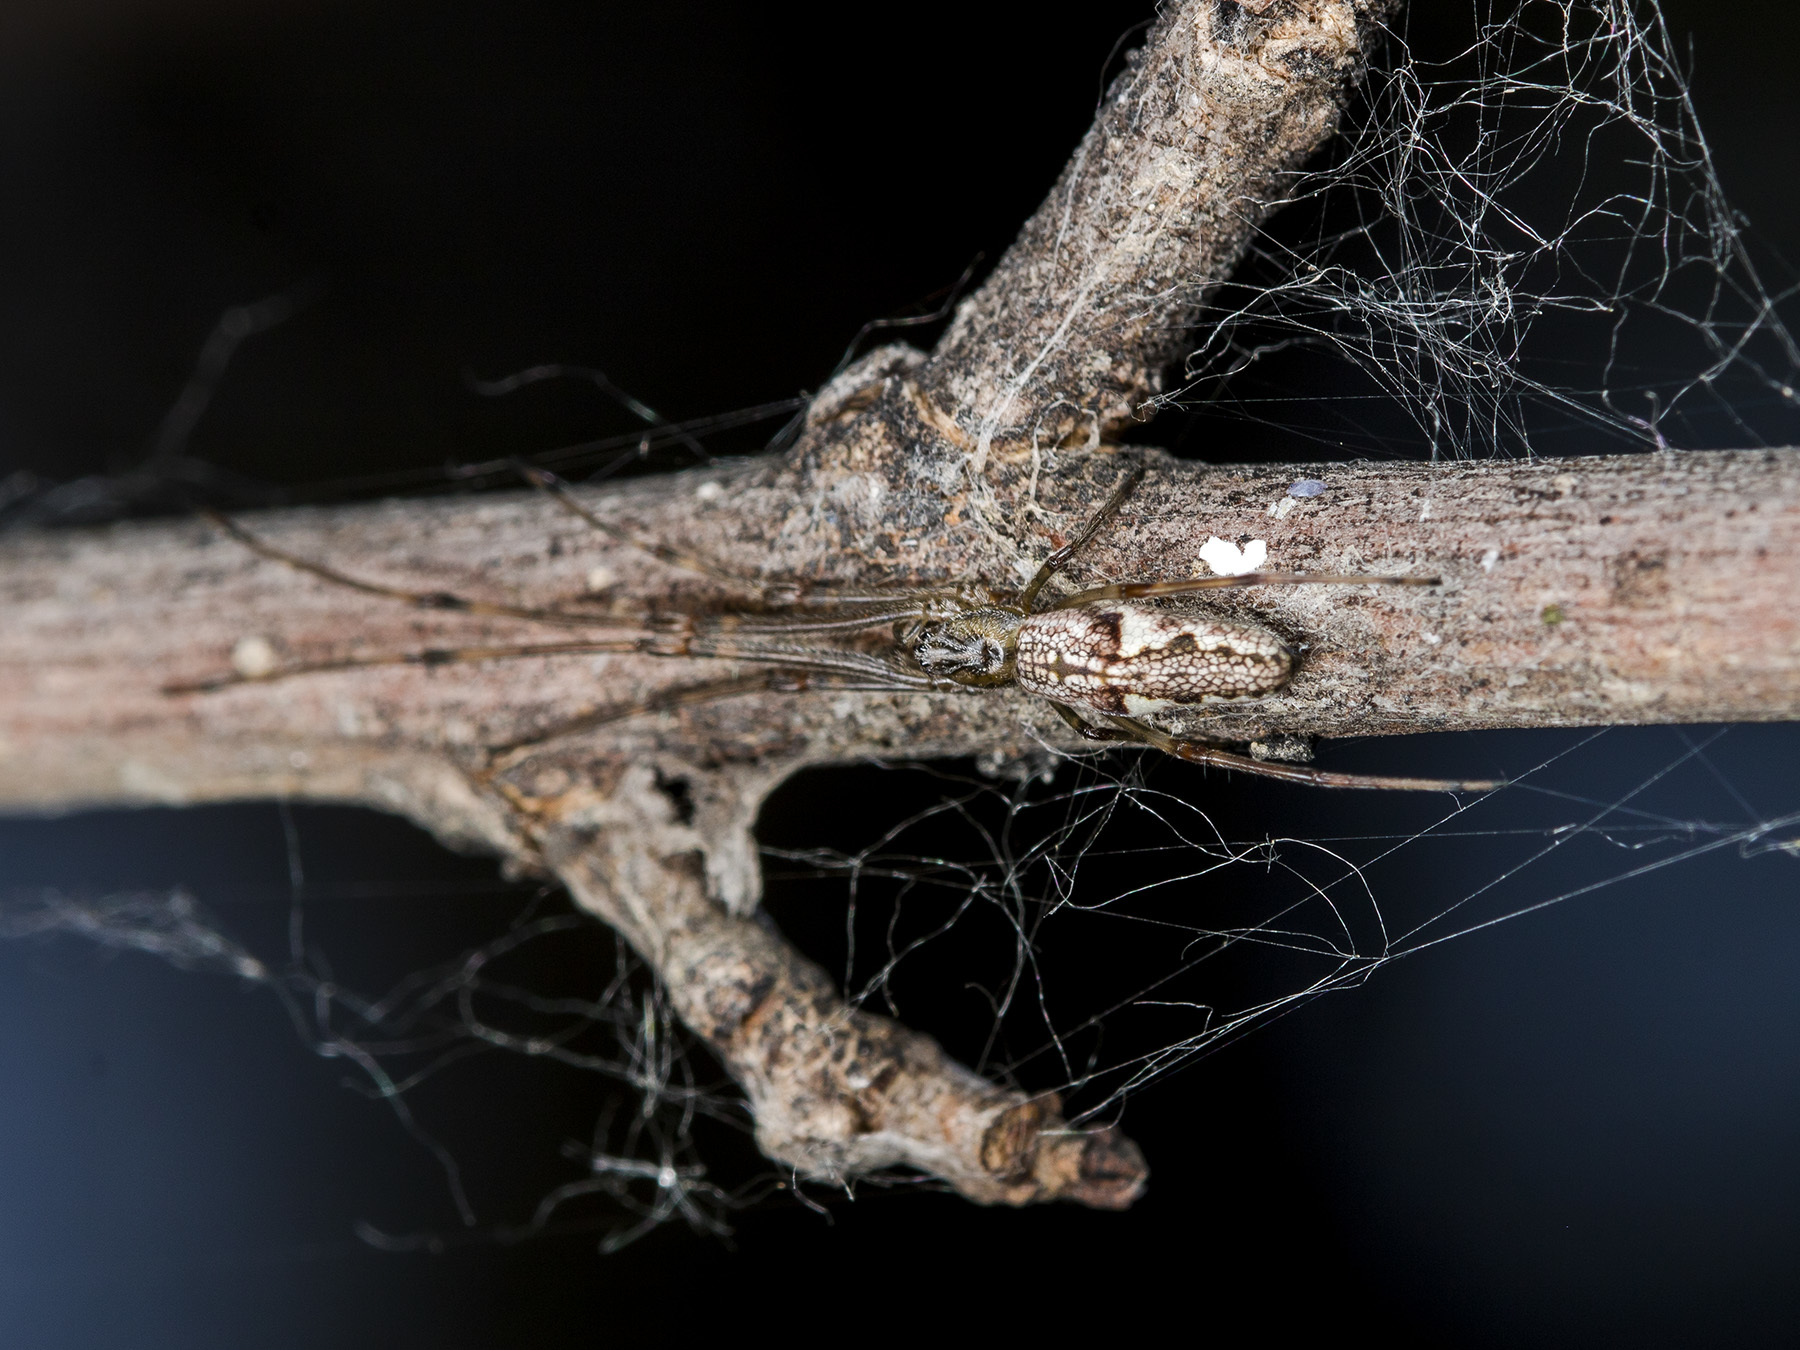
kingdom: Animalia
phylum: Arthropoda
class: Arachnida
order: Araneae
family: Tetragnathidae
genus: Tetragnatha
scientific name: Tetragnatha nigrita
